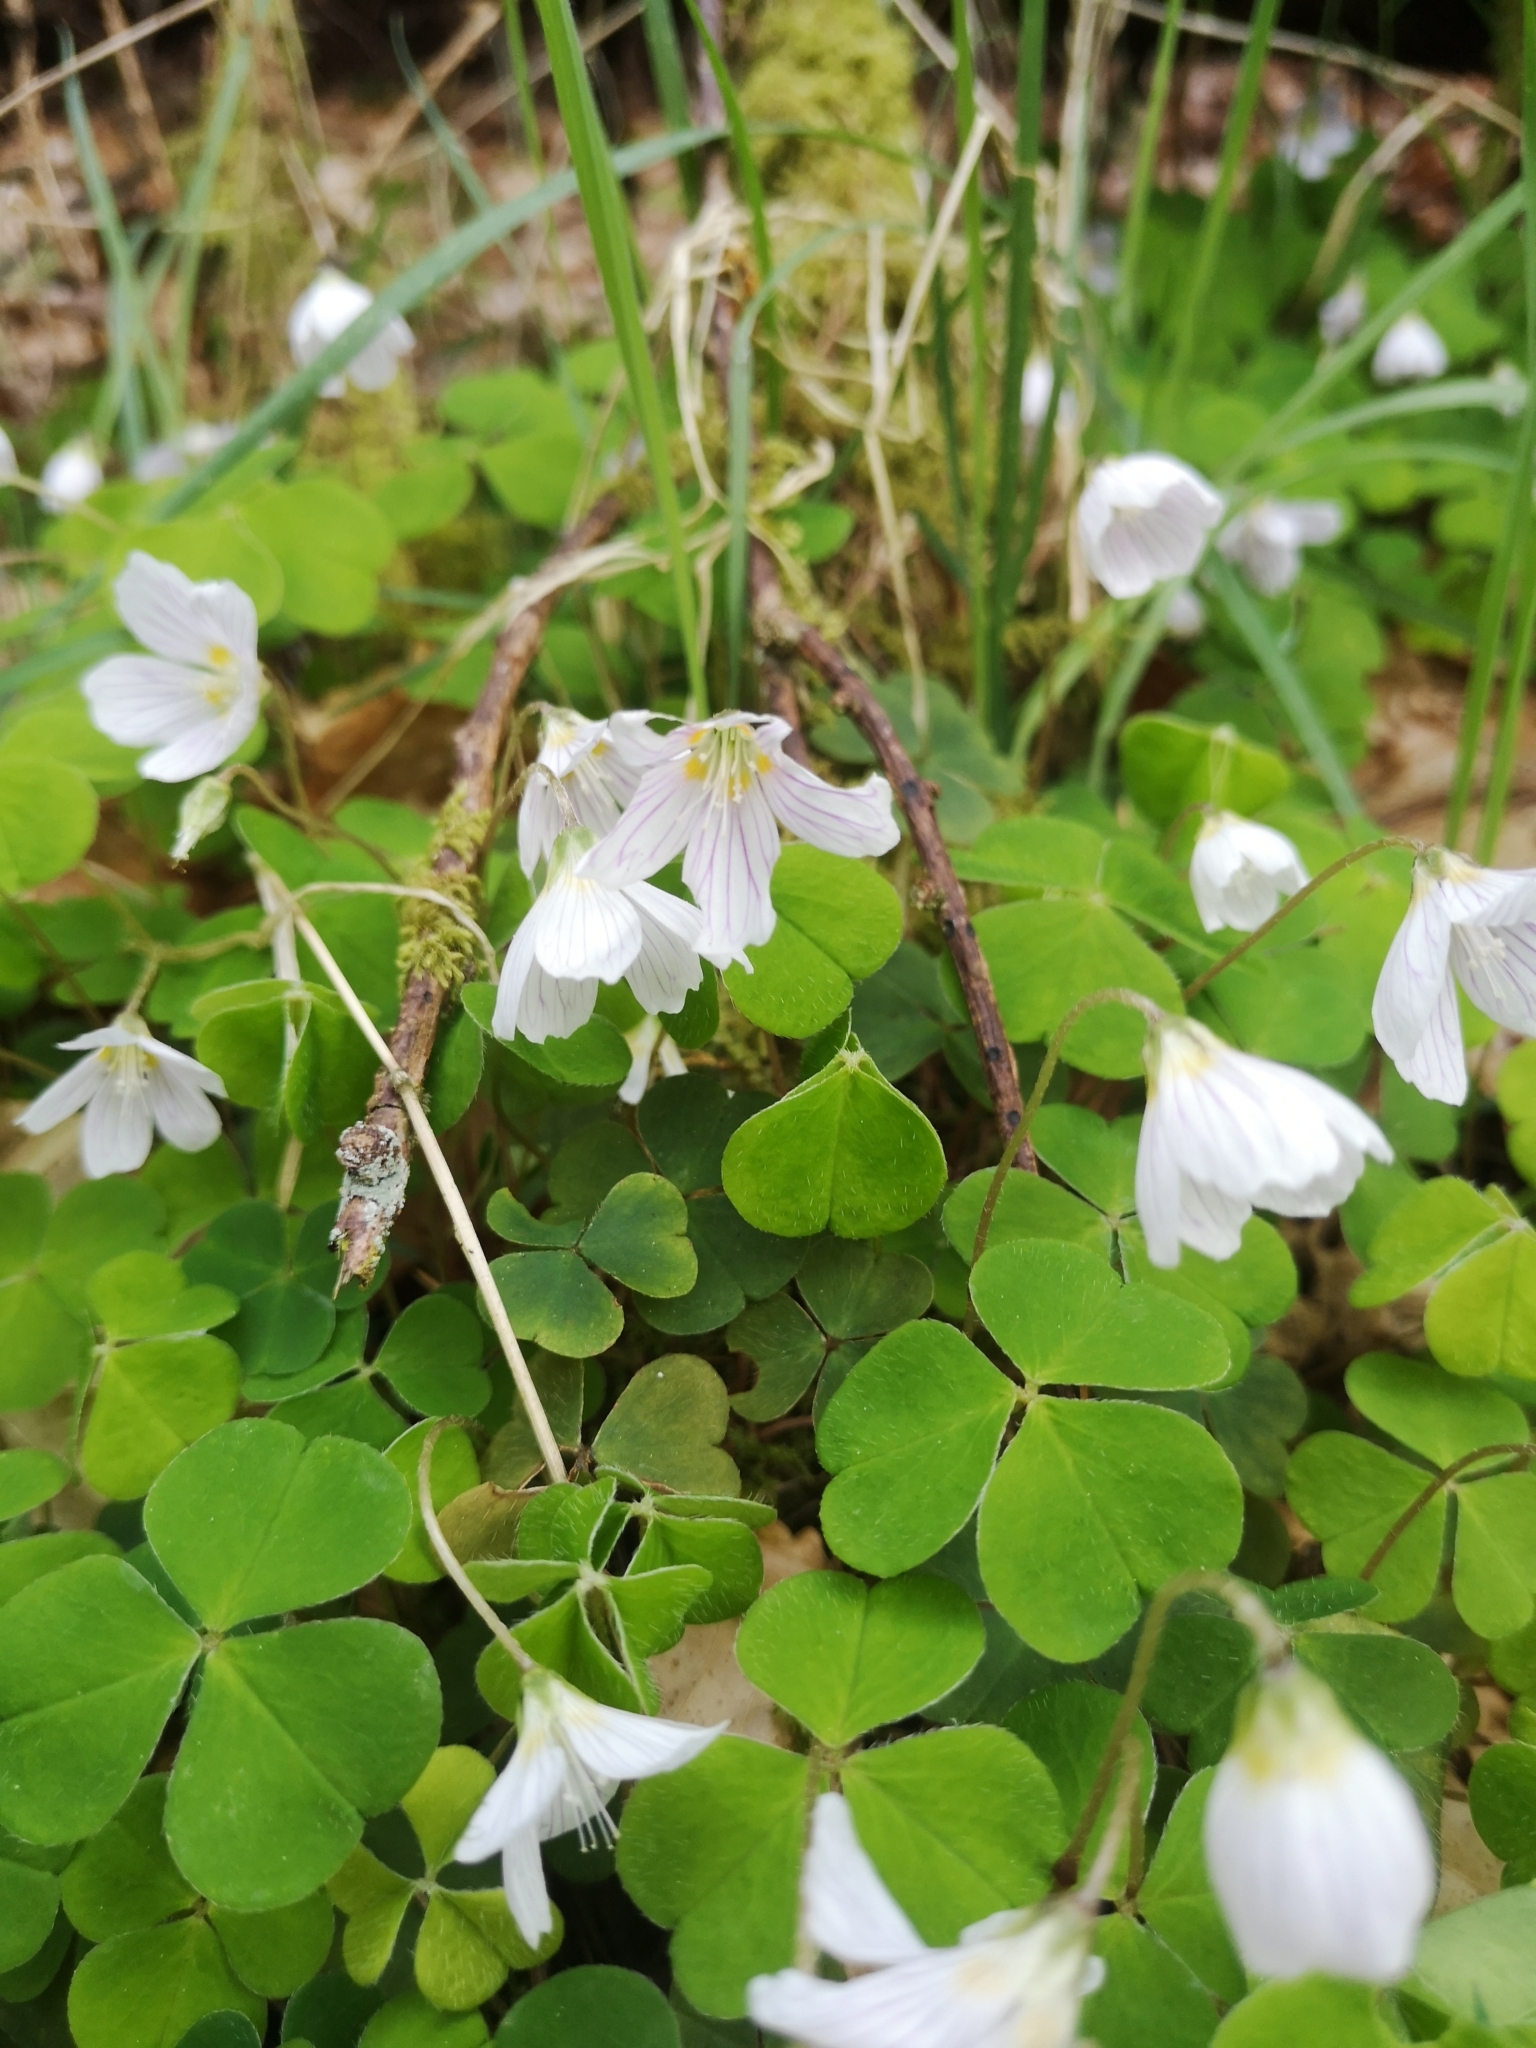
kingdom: Plantae
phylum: Tracheophyta
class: Magnoliopsida
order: Oxalidales
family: Oxalidaceae
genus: Oxalis
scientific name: Oxalis acetosella
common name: Wood-sorrel
